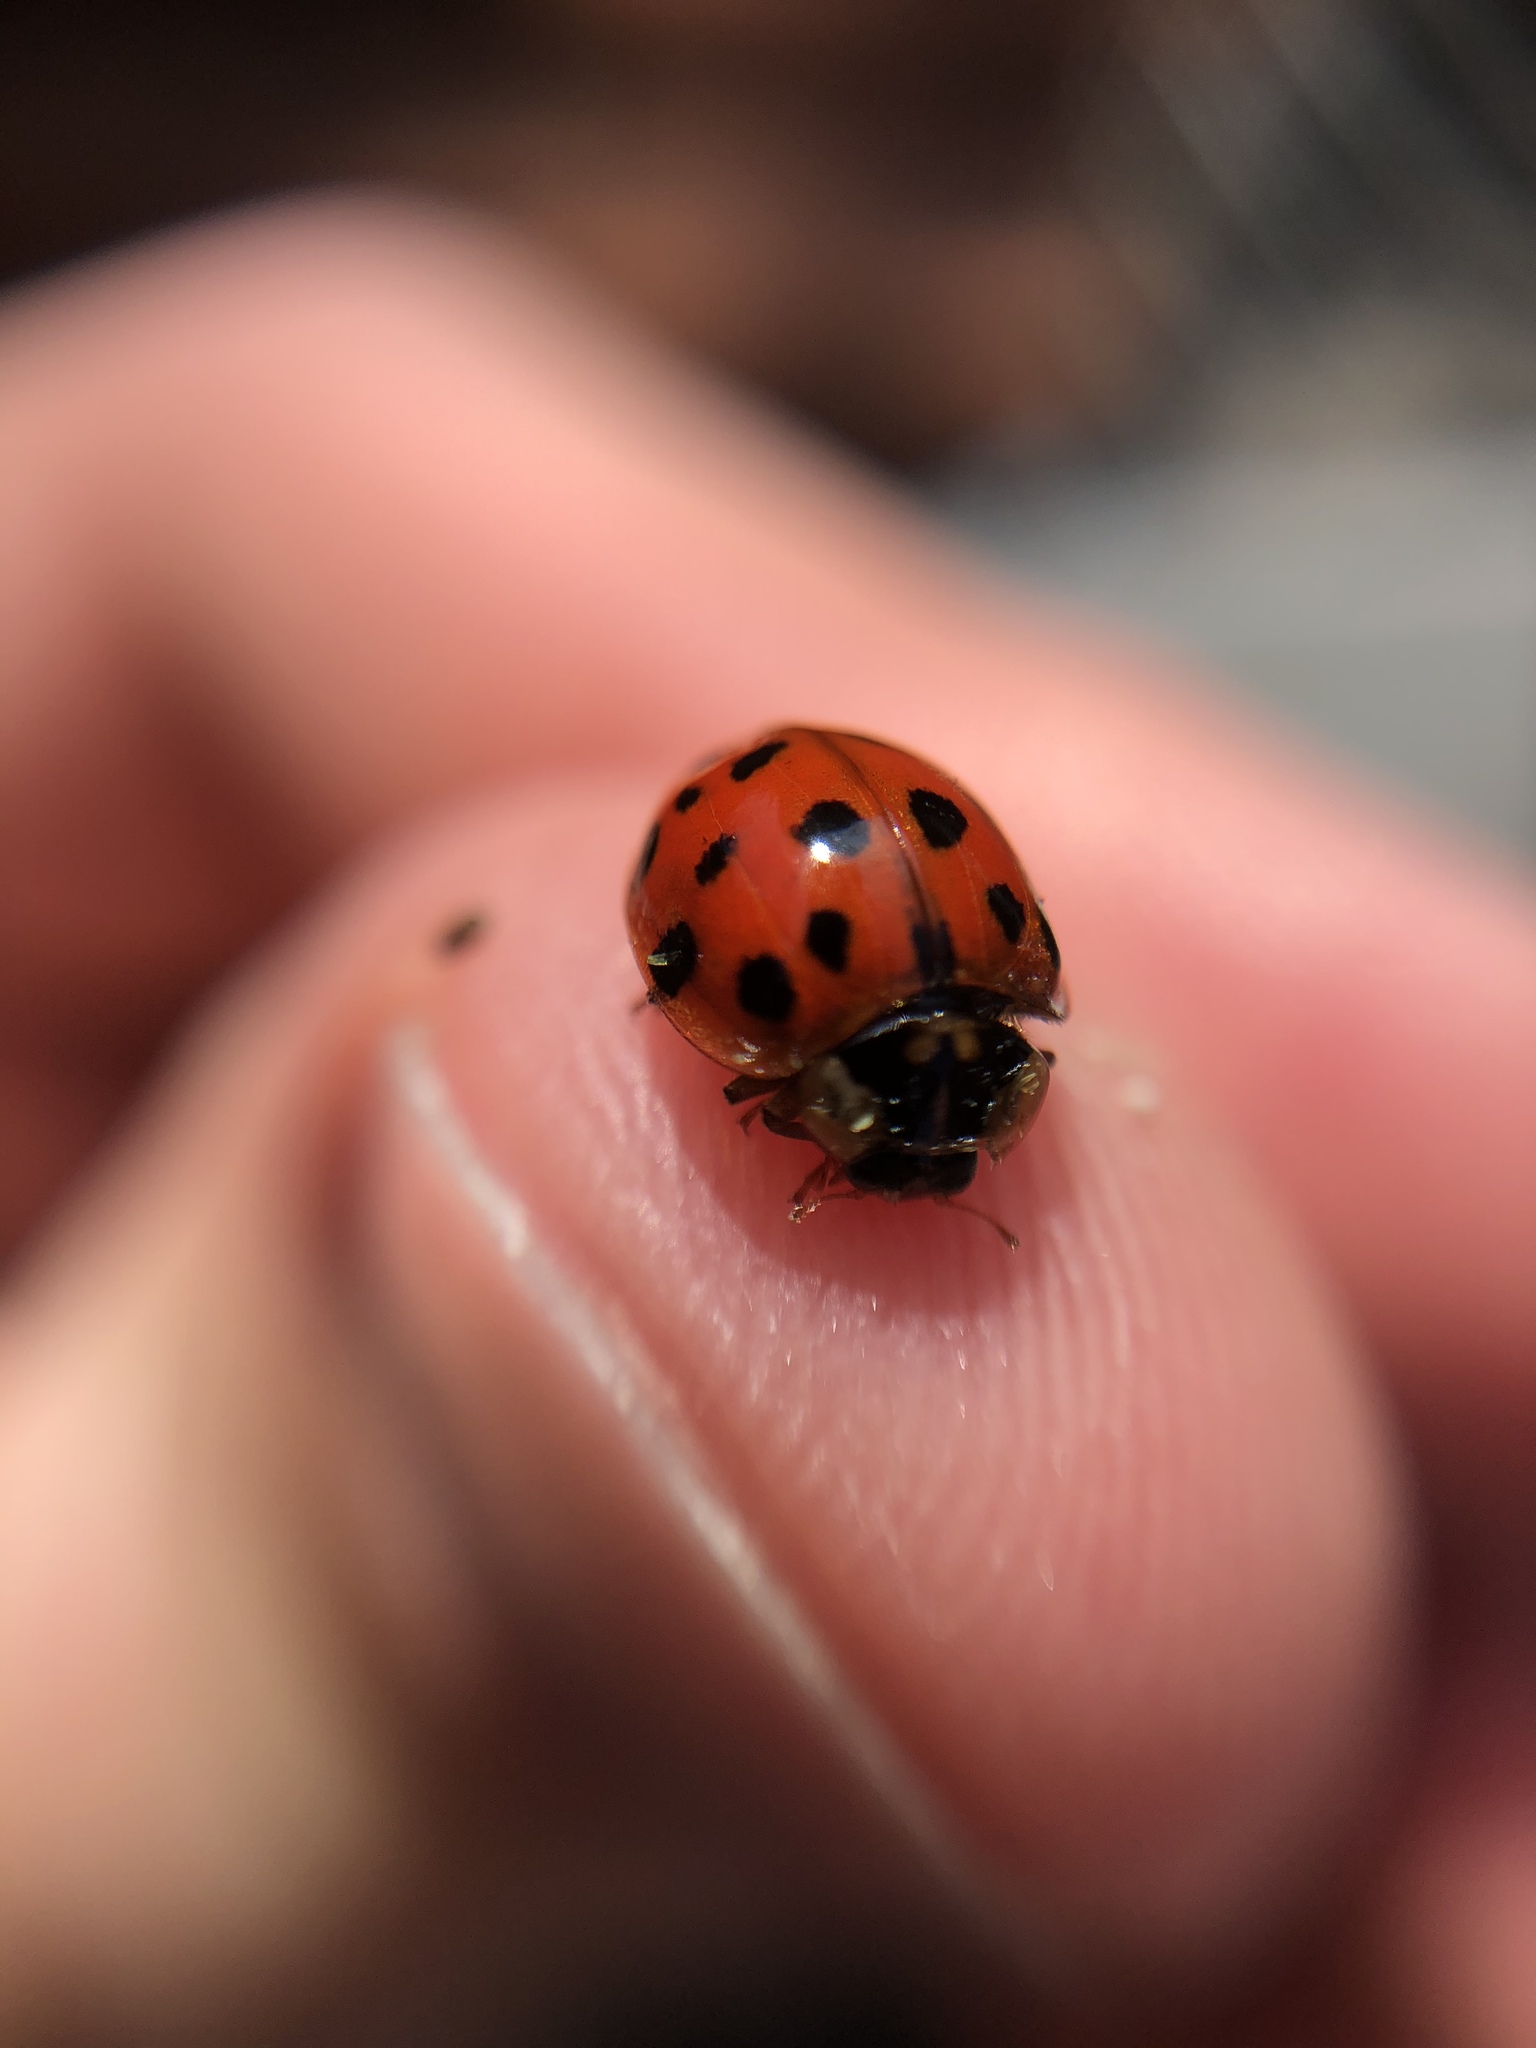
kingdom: Animalia
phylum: Arthropoda
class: Insecta
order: Coleoptera
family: Coccinellidae
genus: Harmonia
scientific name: Harmonia axyridis
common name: Harlequin ladybird
